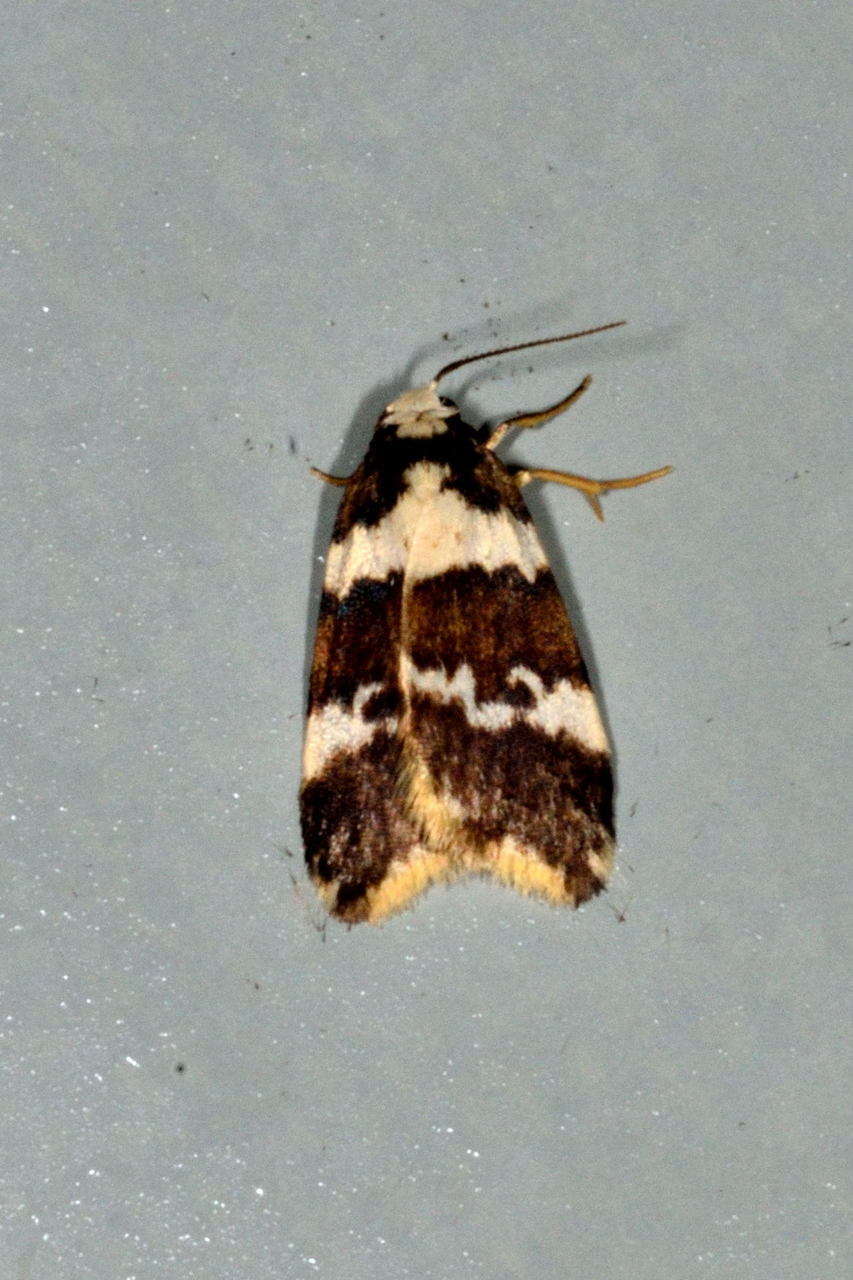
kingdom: Animalia
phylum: Arthropoda
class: Insecta
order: Lepidoptera
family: Erebidae
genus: Halone
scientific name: Halone sejuncta
